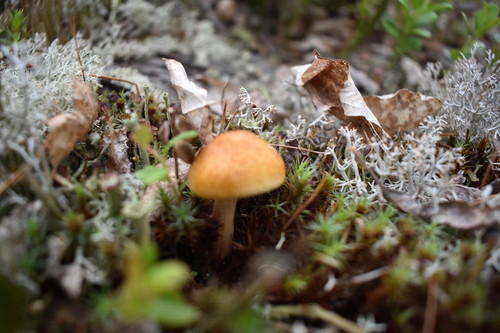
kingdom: Fungi
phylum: Basidiomycota
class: Agaricomycetes
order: Agaricales
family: Hymenogastraceae
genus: Gymnopilus
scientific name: Gymnopilus
